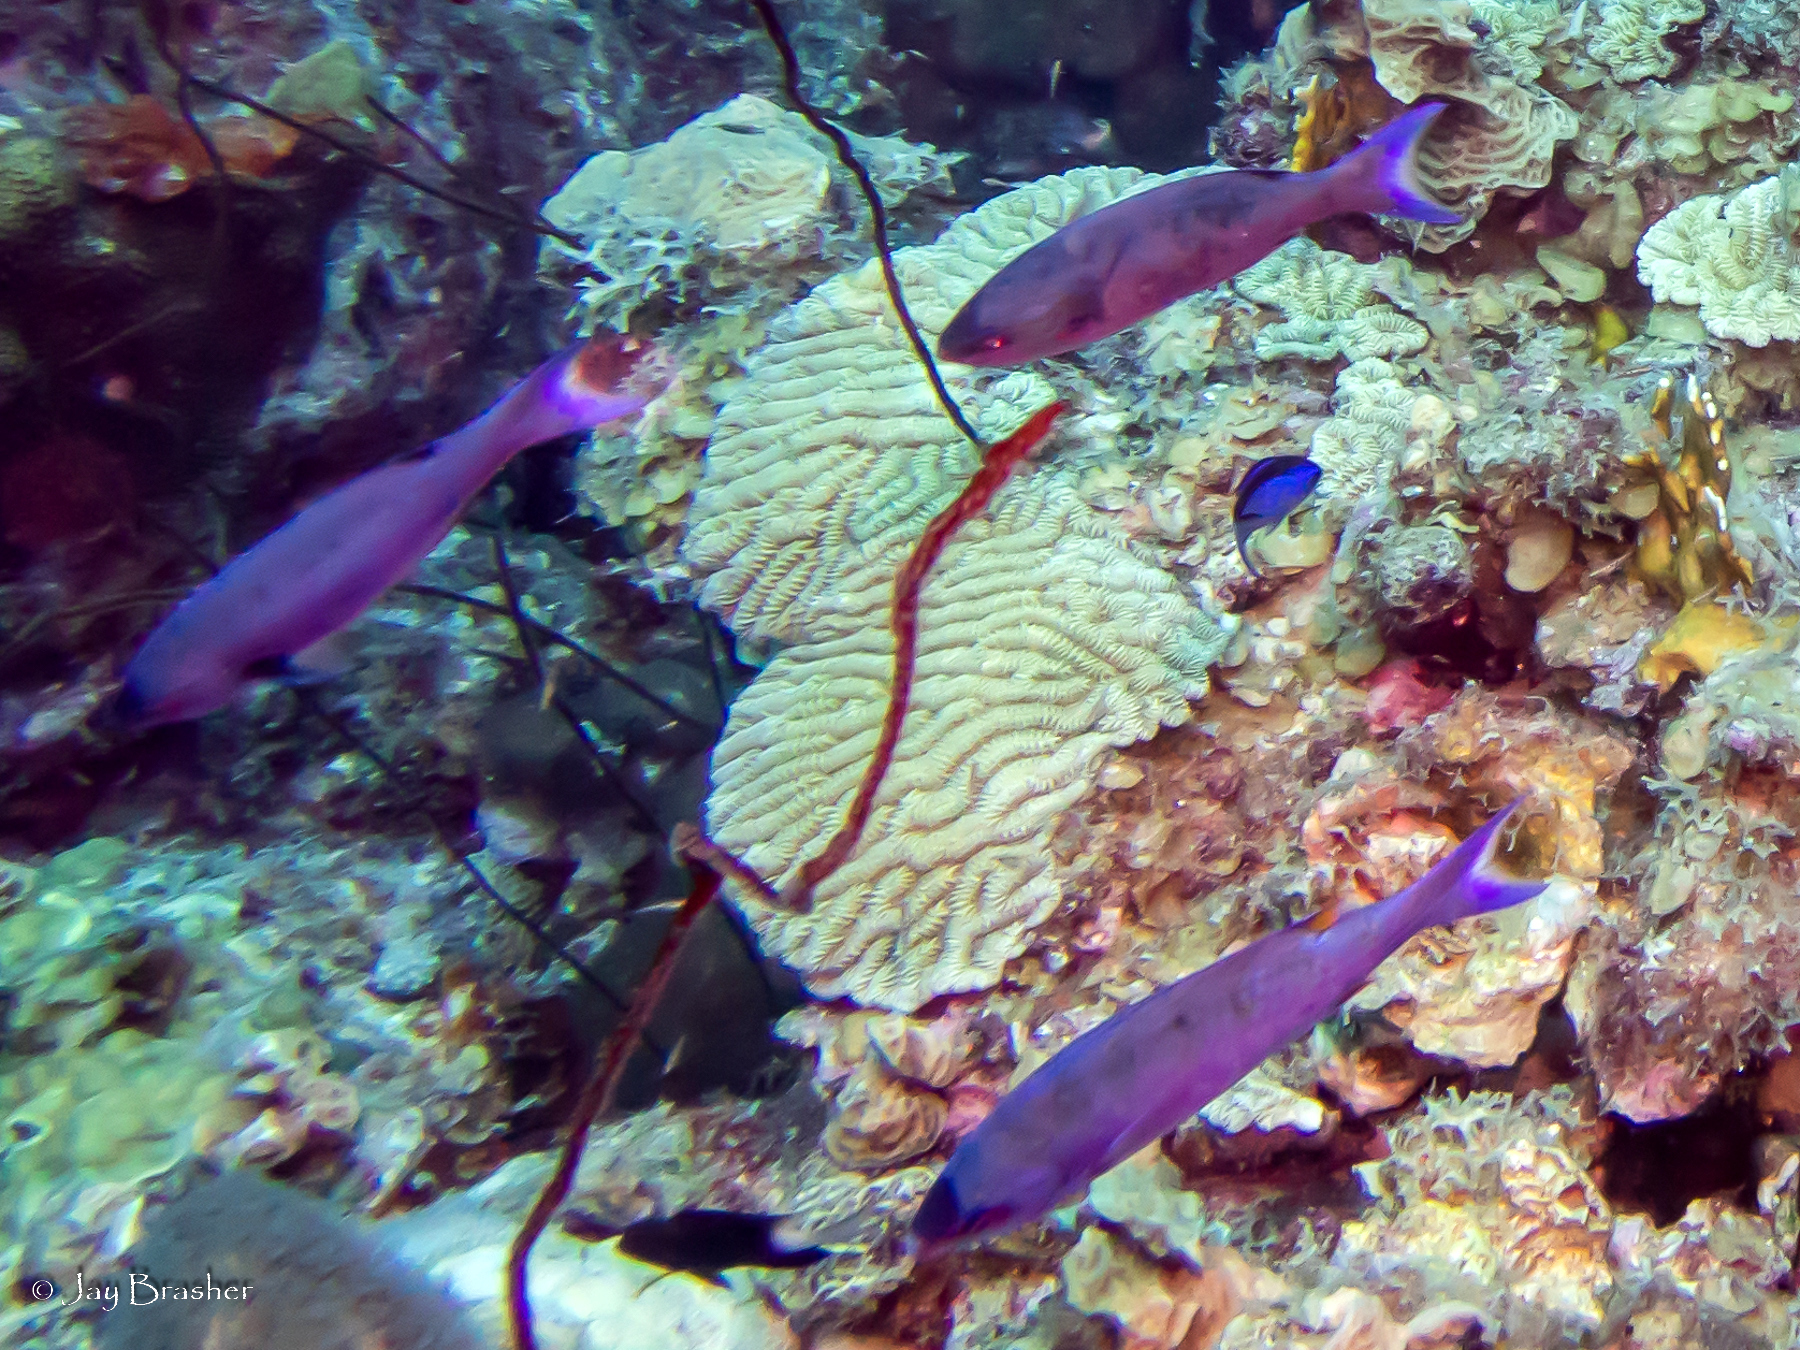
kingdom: Animalia
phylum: Cnidaria
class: Anthozoa
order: Antipatharia
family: Antipathidae
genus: Stichopathes
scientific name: Stichopathes luetkeni
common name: Black wire coral
